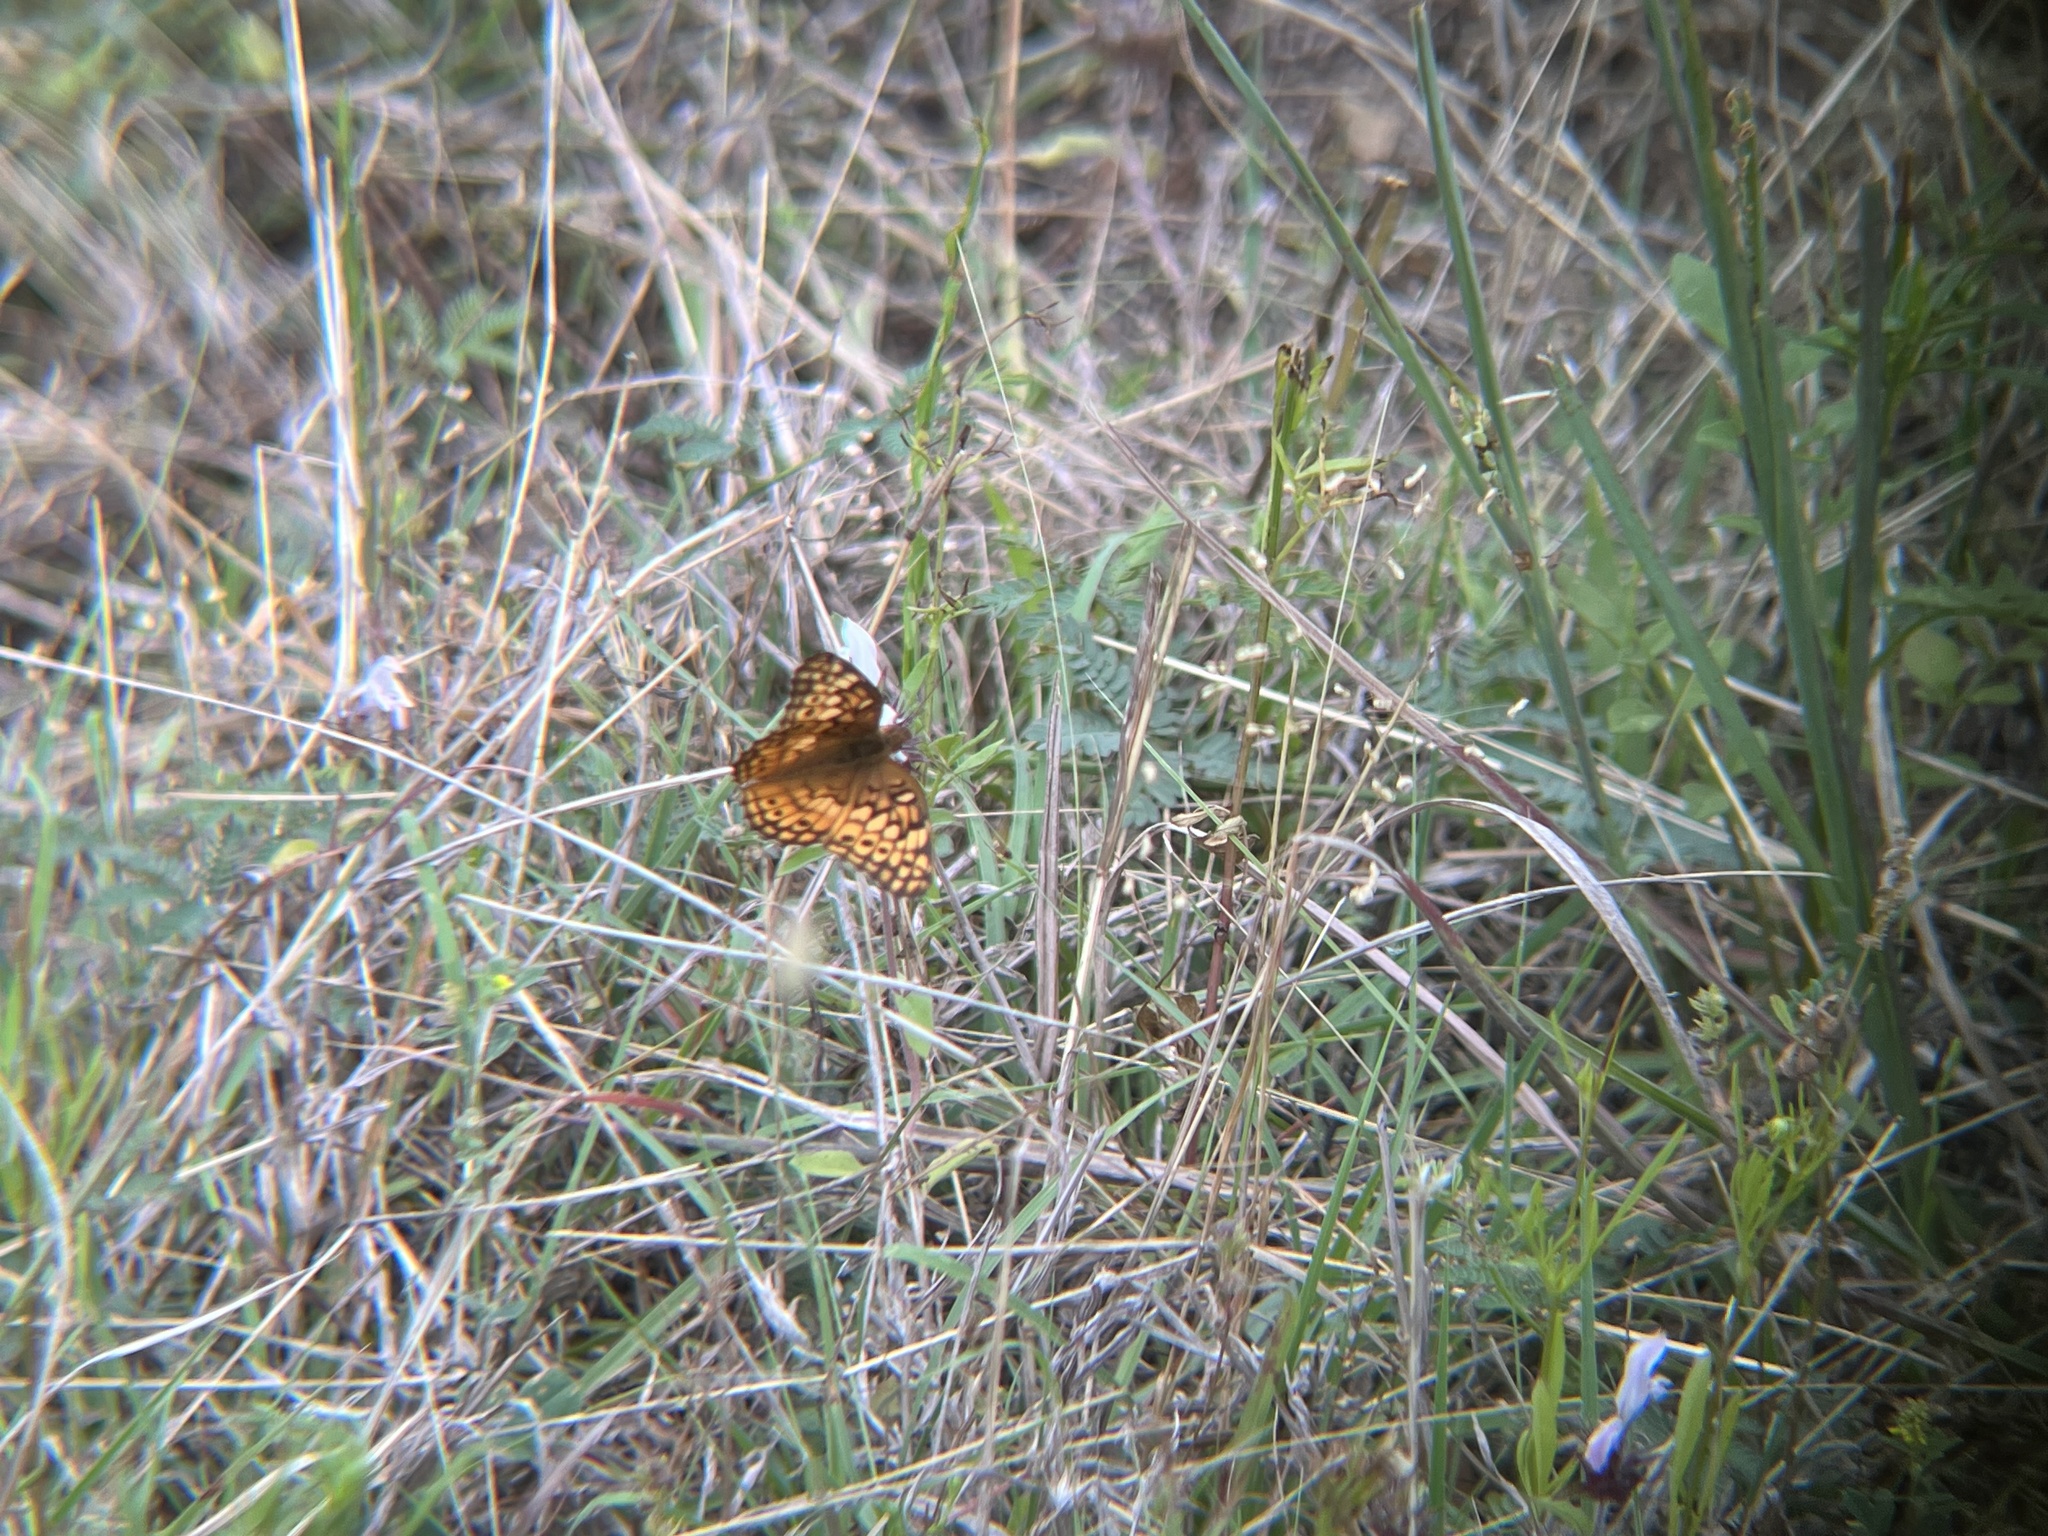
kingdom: Animalia
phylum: Arthropoda
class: Insecta
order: Lepidoptera
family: Nymphalidae
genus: Euptoieta
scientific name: Euptoieta claudia
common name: Variegated fritillary
